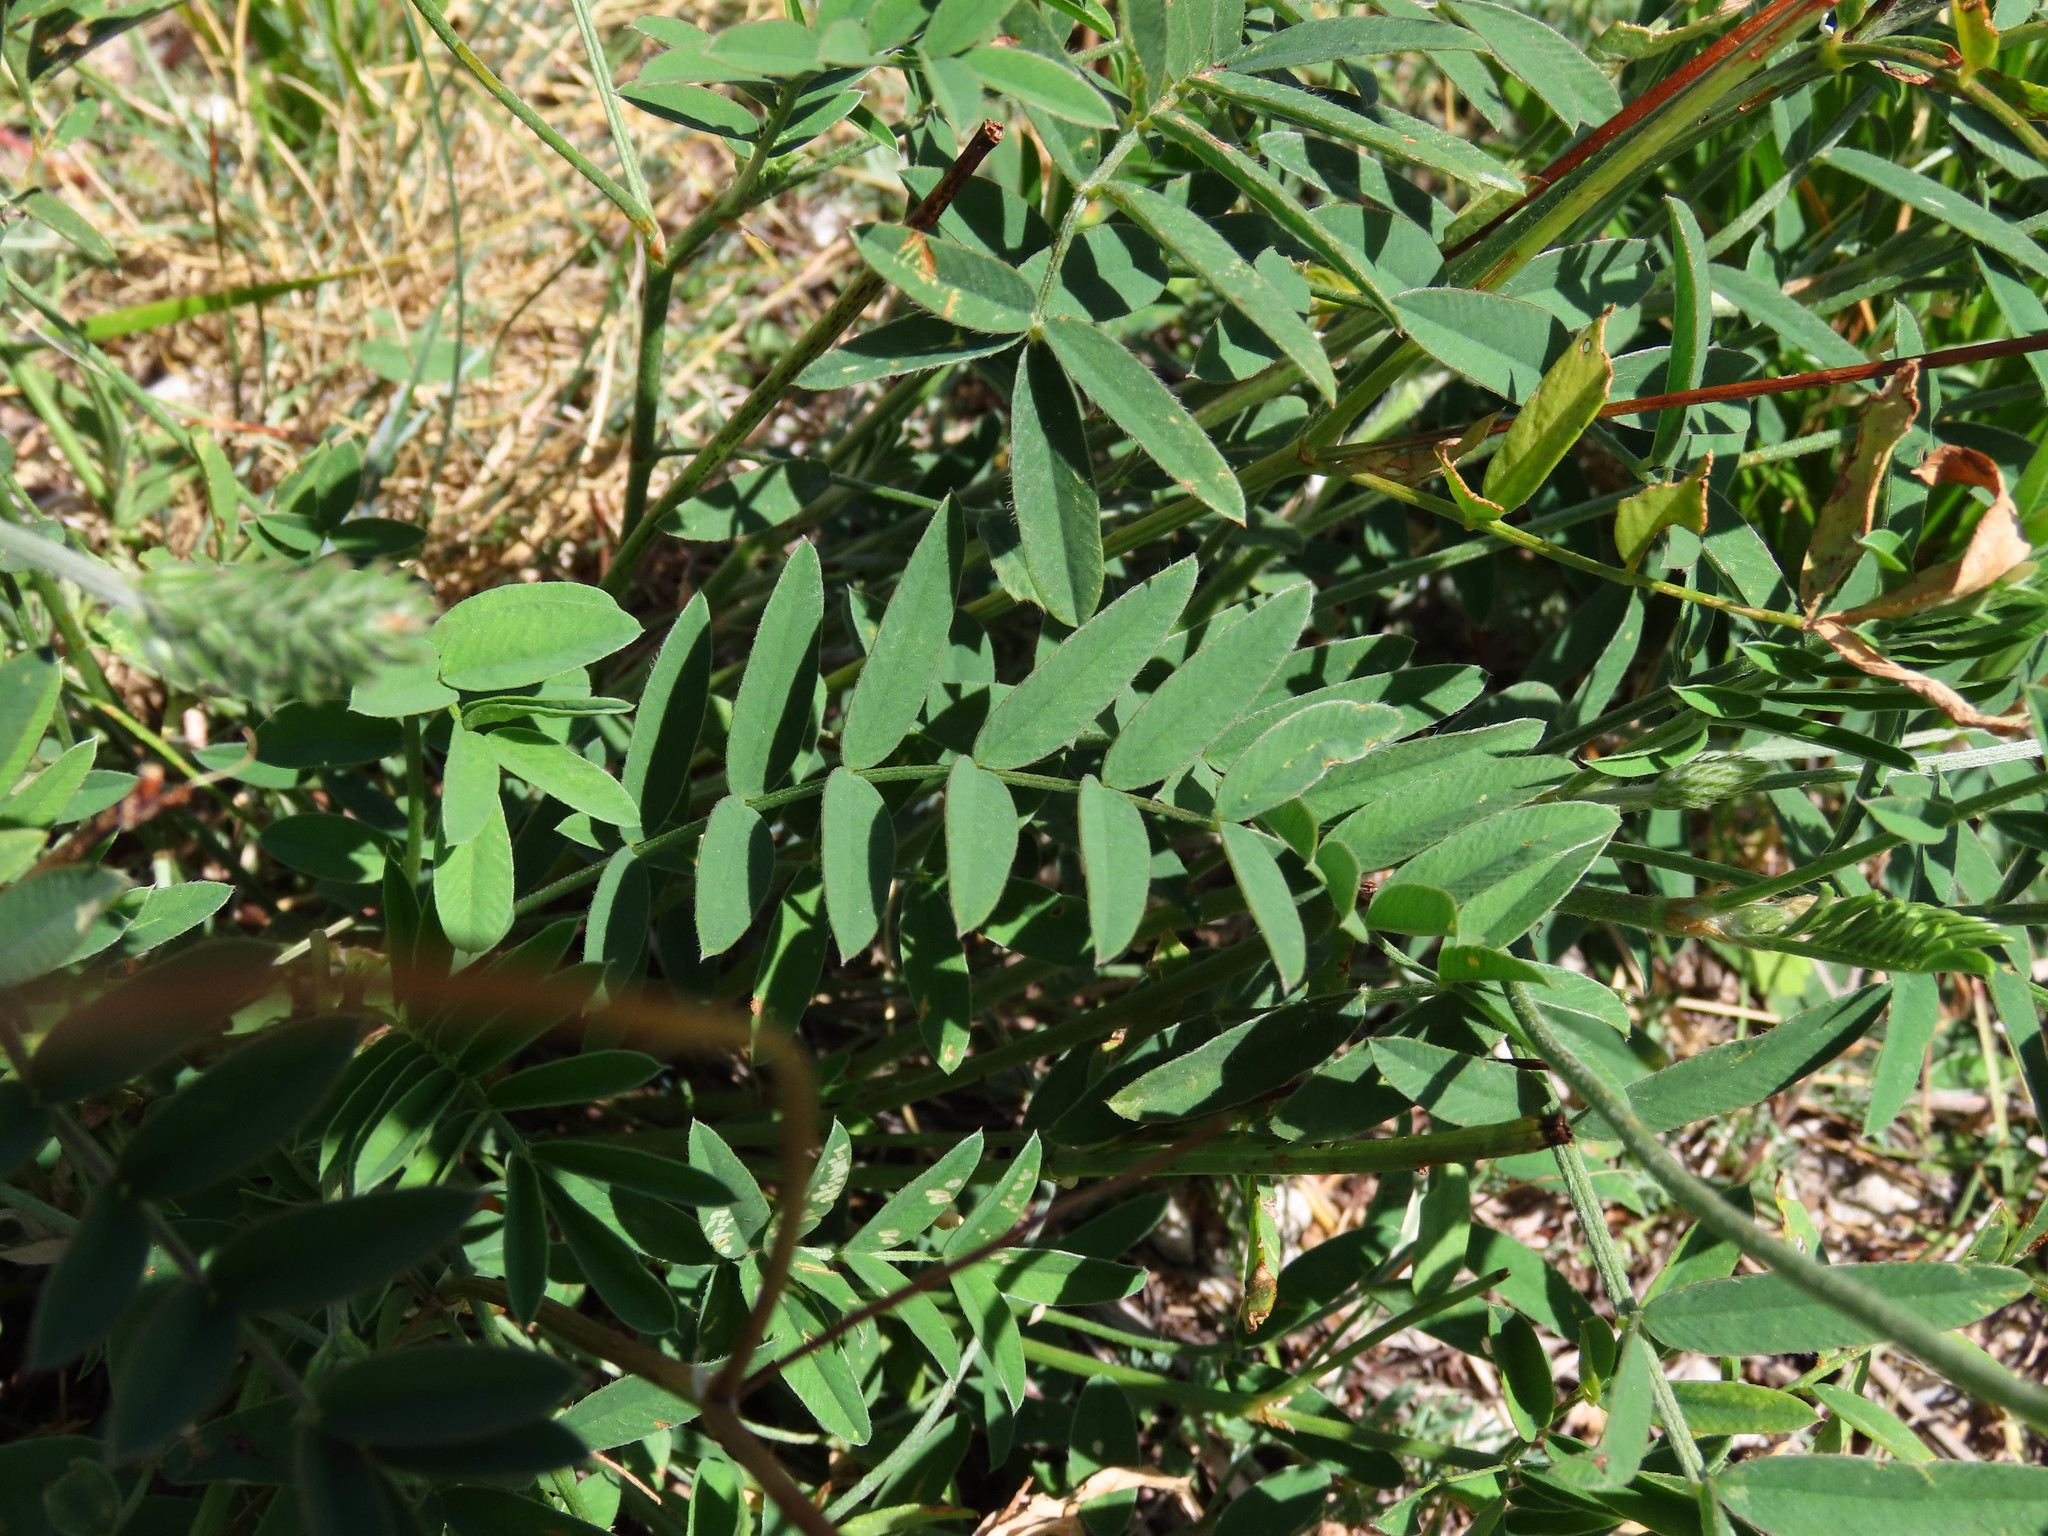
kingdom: Plantae
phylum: Tracheophyta
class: Magnoliopsida
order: Fabales
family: Fabaceae
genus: Onobrychis
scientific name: Onobrychis viciifolia
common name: Sainfoin
